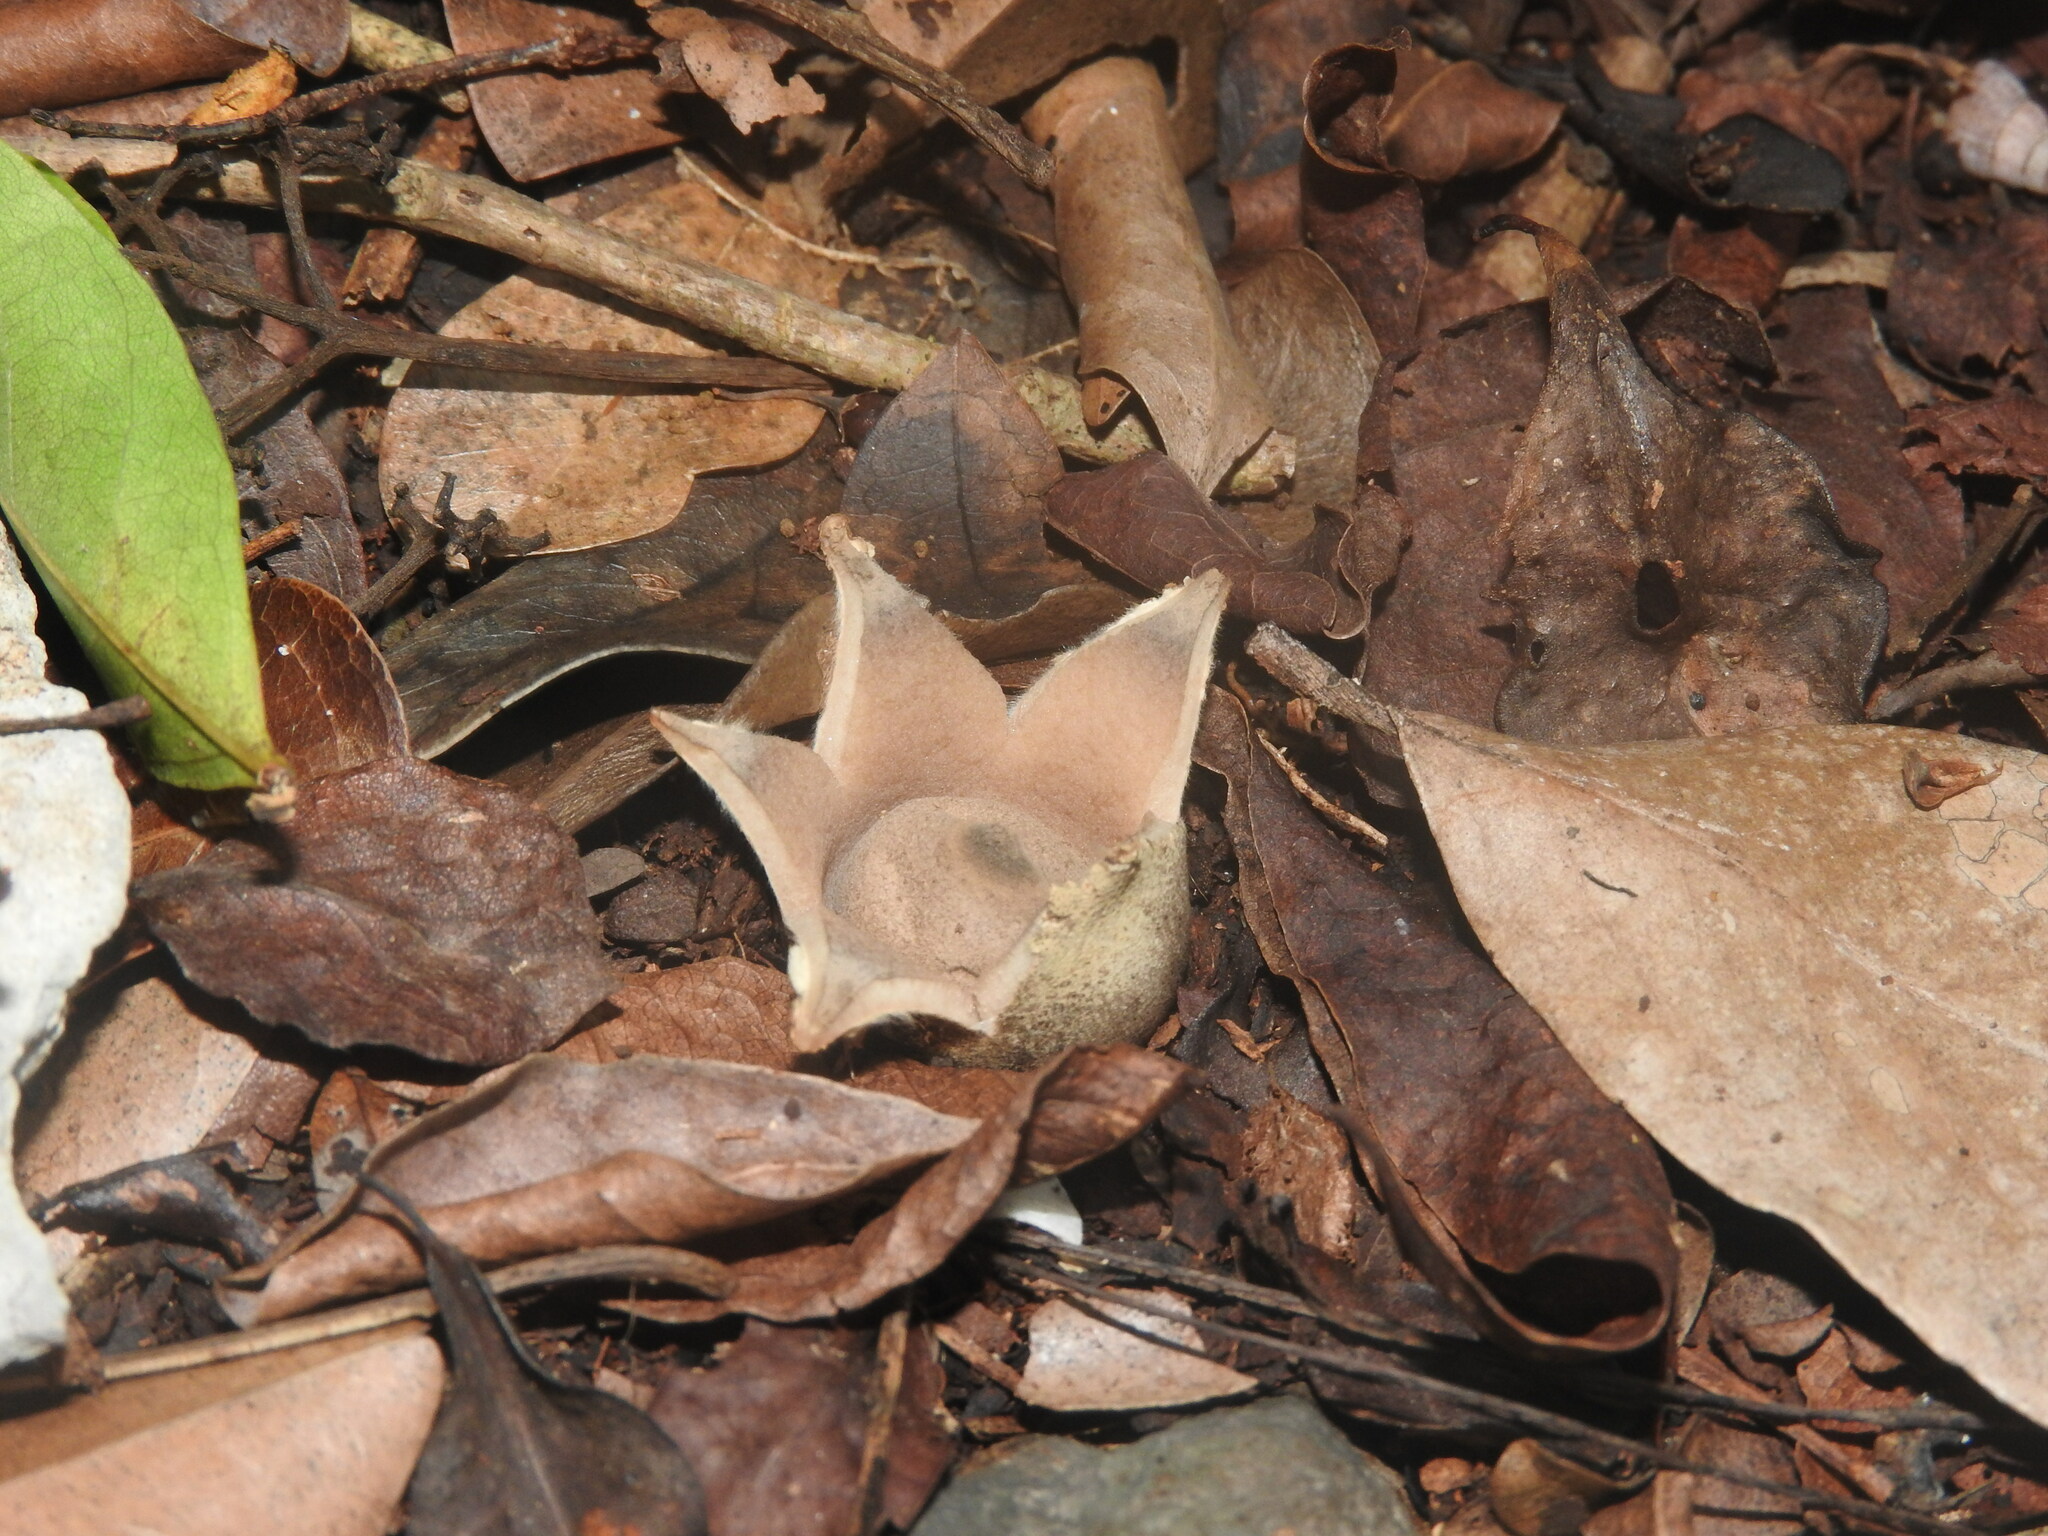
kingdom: Fungi
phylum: Basidiomycota
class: Agaricomycetes
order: Geastrales
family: Geastraceae
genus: Geastrum
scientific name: Geastrum triplex
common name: Collared earthstar
